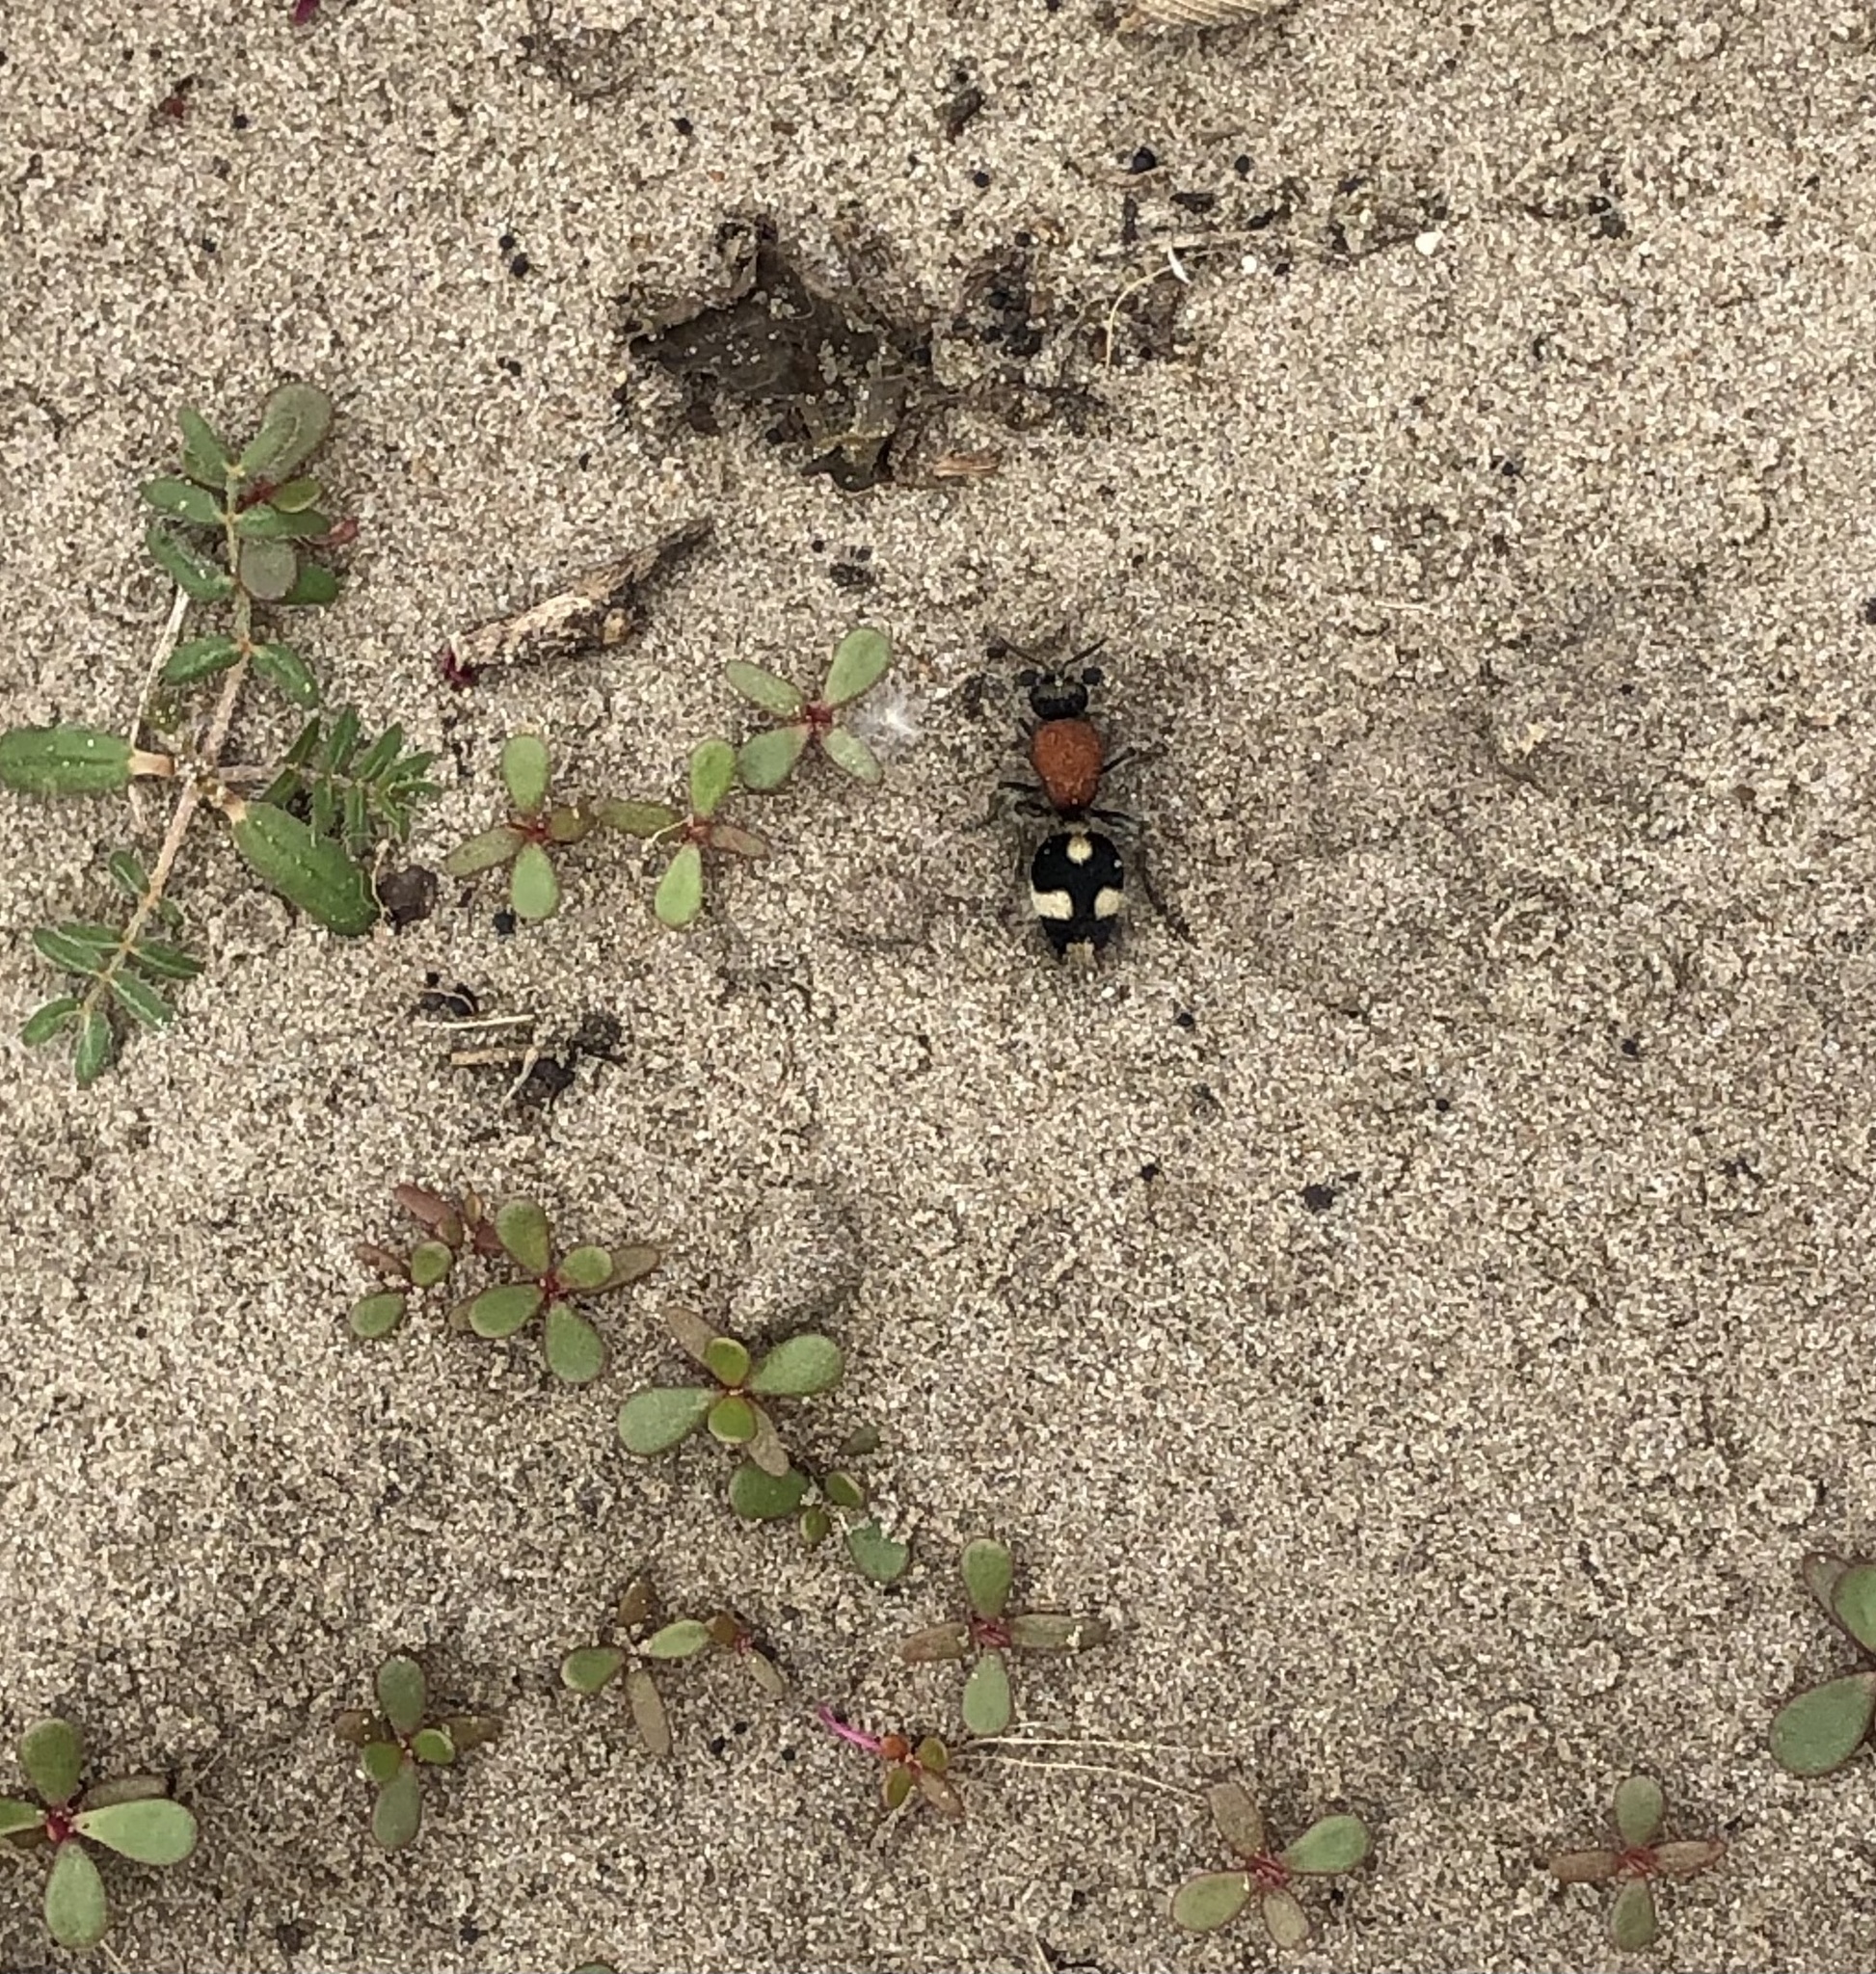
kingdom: Animalia
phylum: Arthropoda
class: Insecta
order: Hymenoptera
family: Mutillidae
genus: Dasylabris
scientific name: Dasylabris maura
